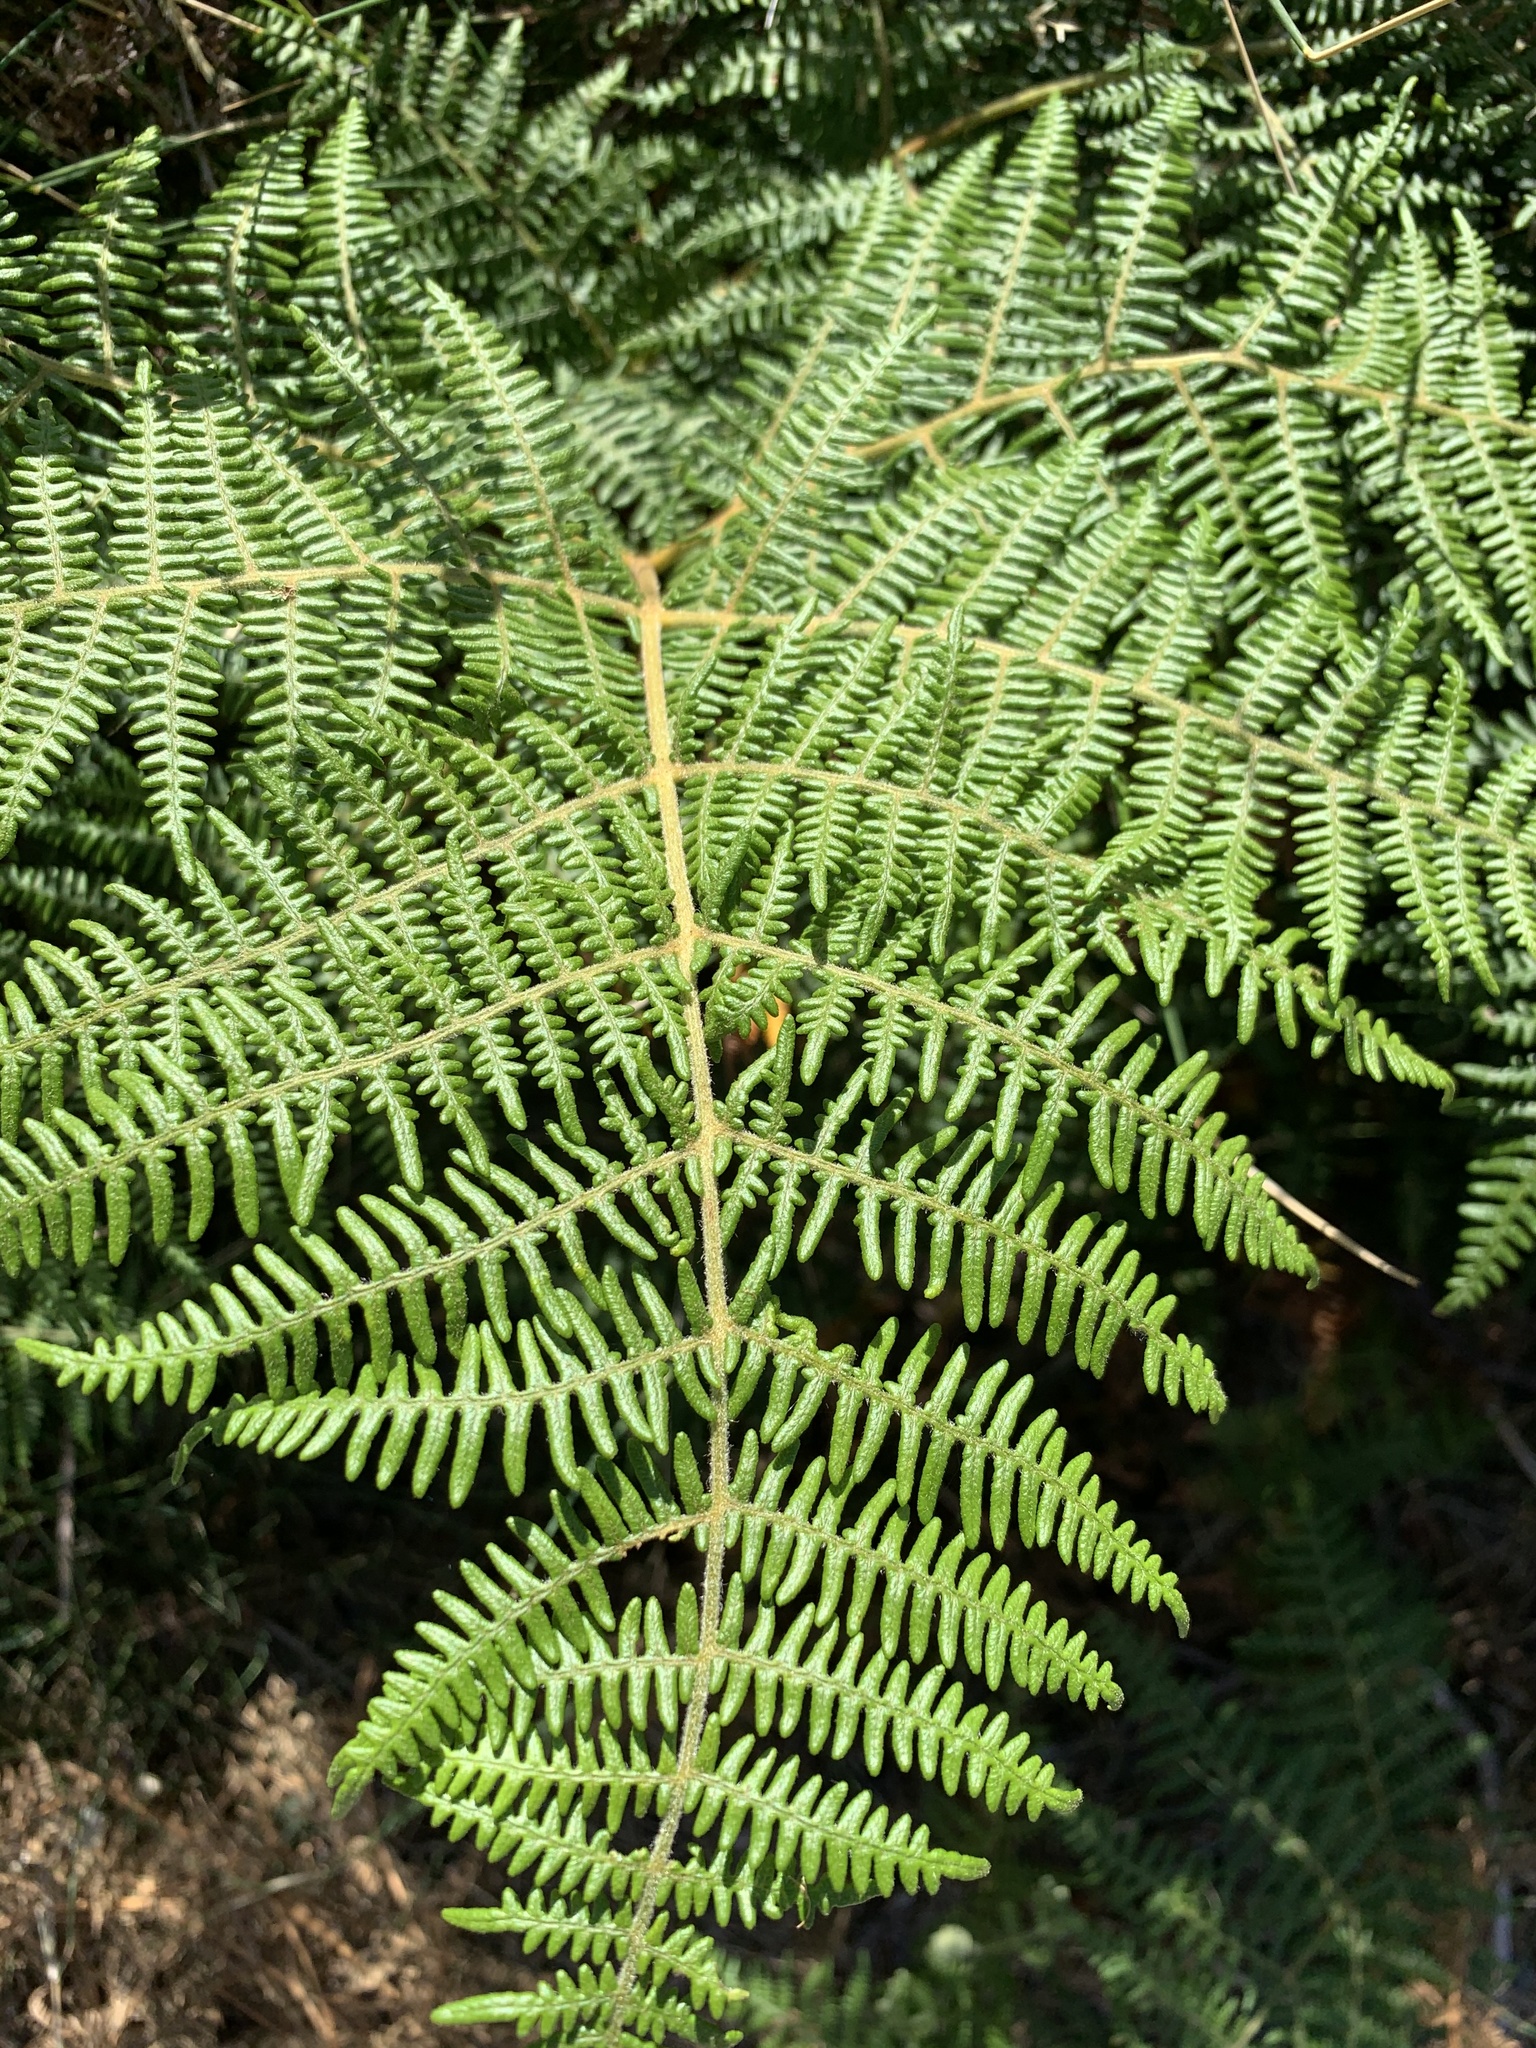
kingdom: Plantae
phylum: Tracheophyta
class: Polypodiopsida
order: Polypodiales
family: Dennstaedtiaceae
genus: Pteridium
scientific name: Pteridium aquilinum
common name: Bracken
